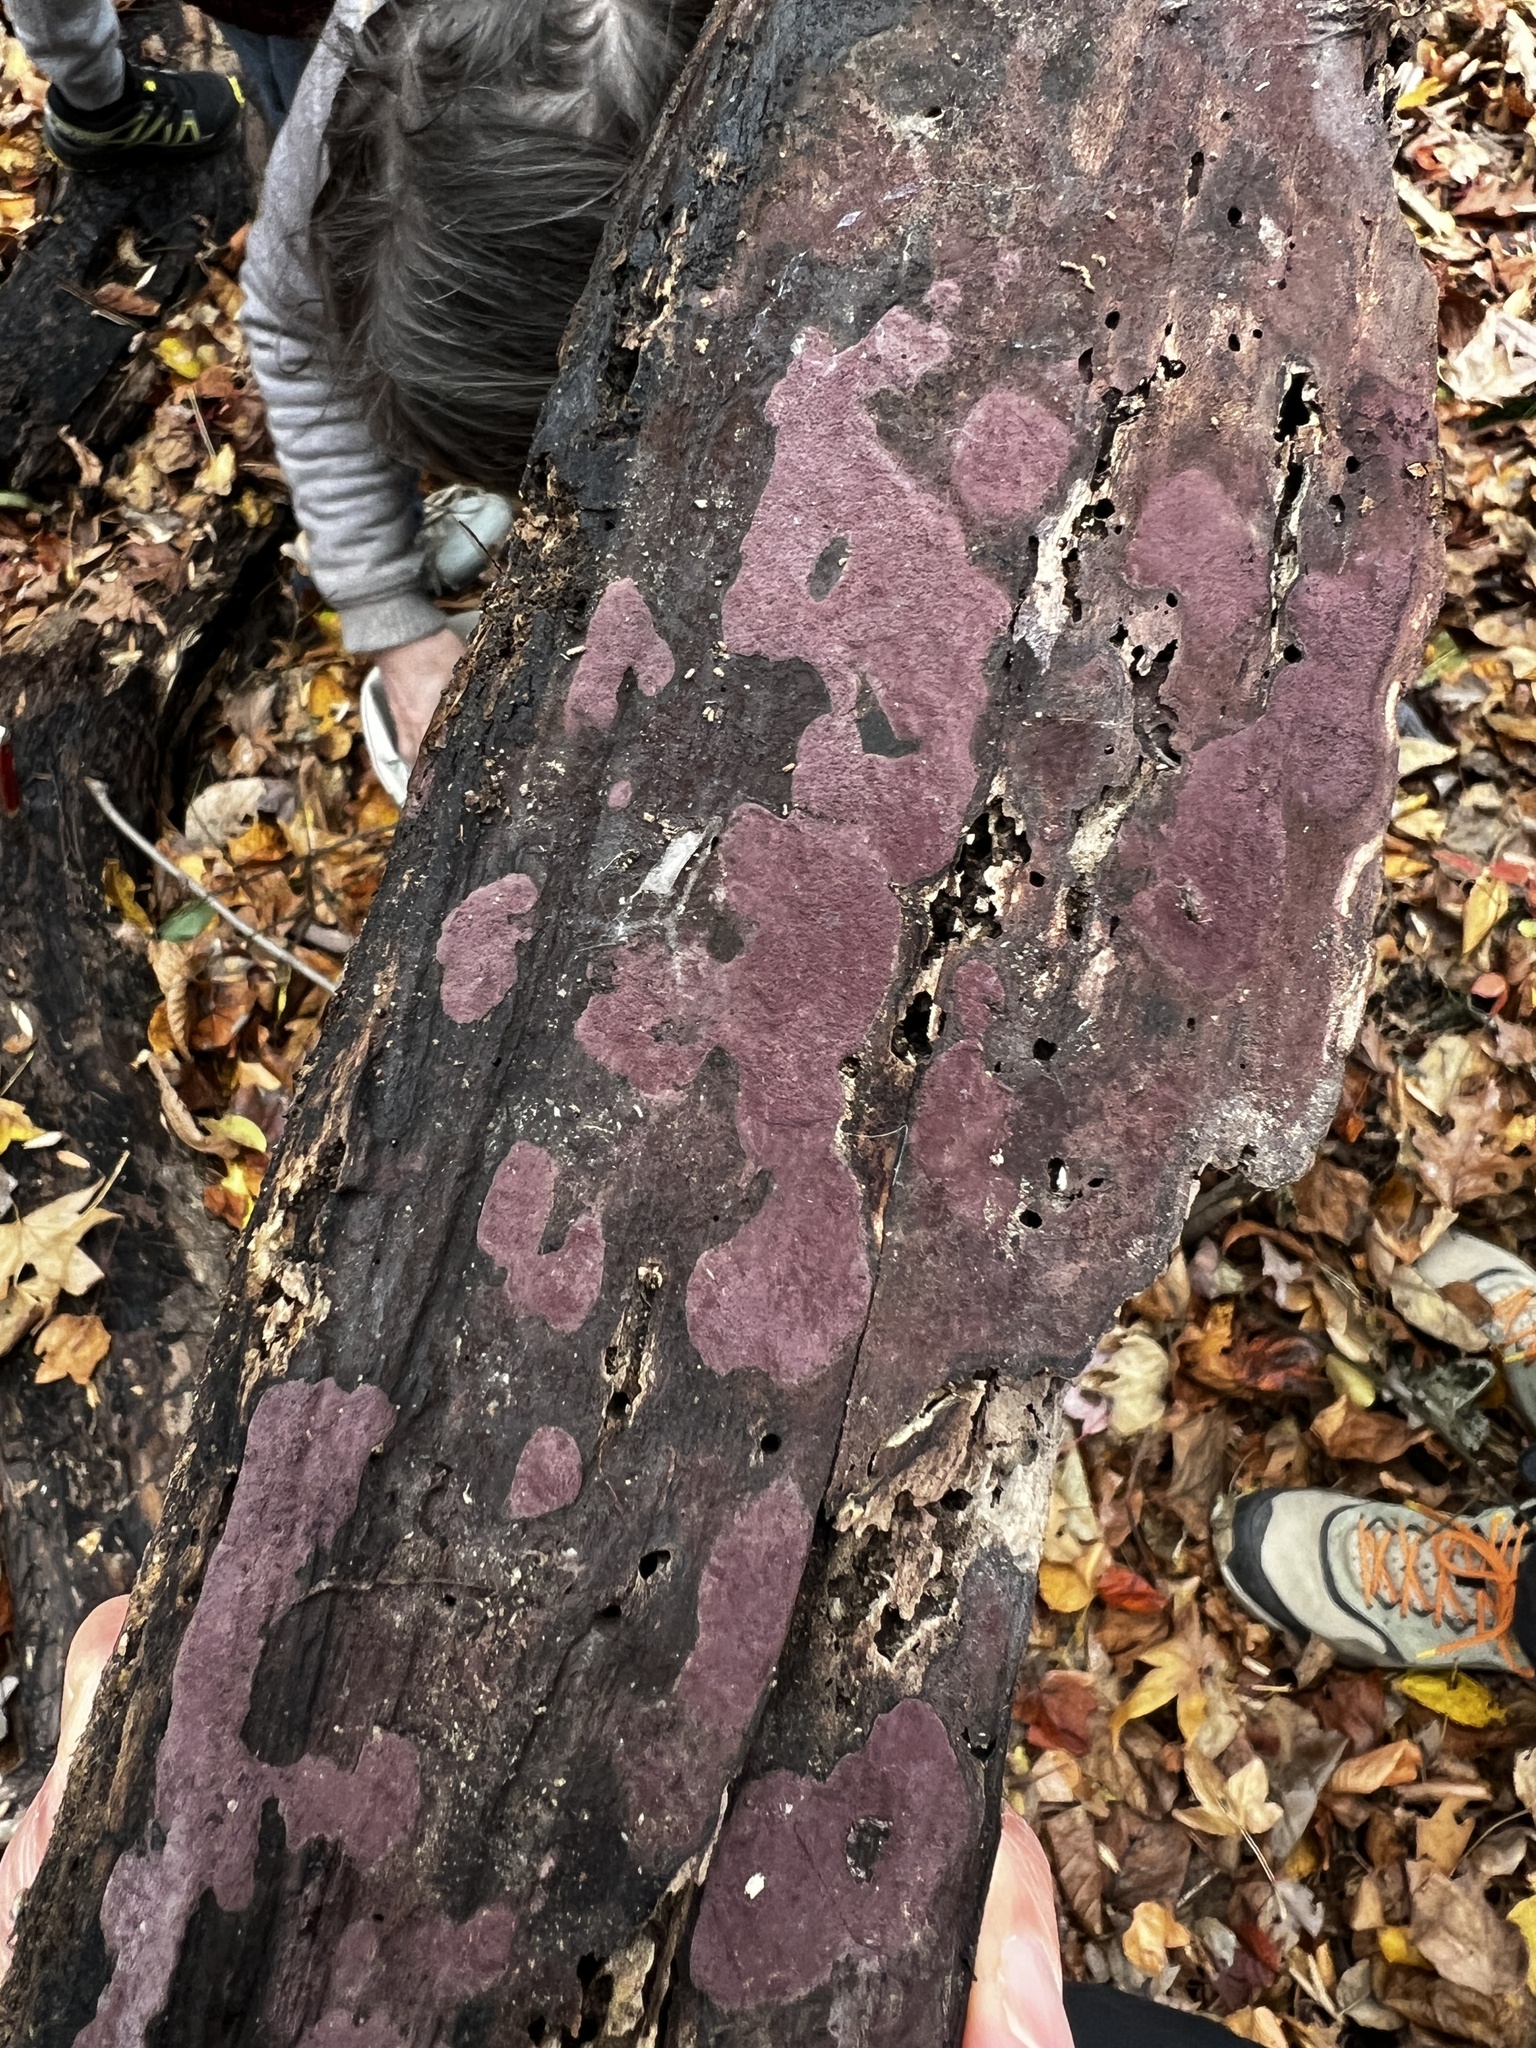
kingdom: Fungi
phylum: Ascomycota
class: Sordariomycetes
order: Xylariales
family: Hypoxylaceae
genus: Hypoxylon
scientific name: Hypoxylon fuscopurpureum
